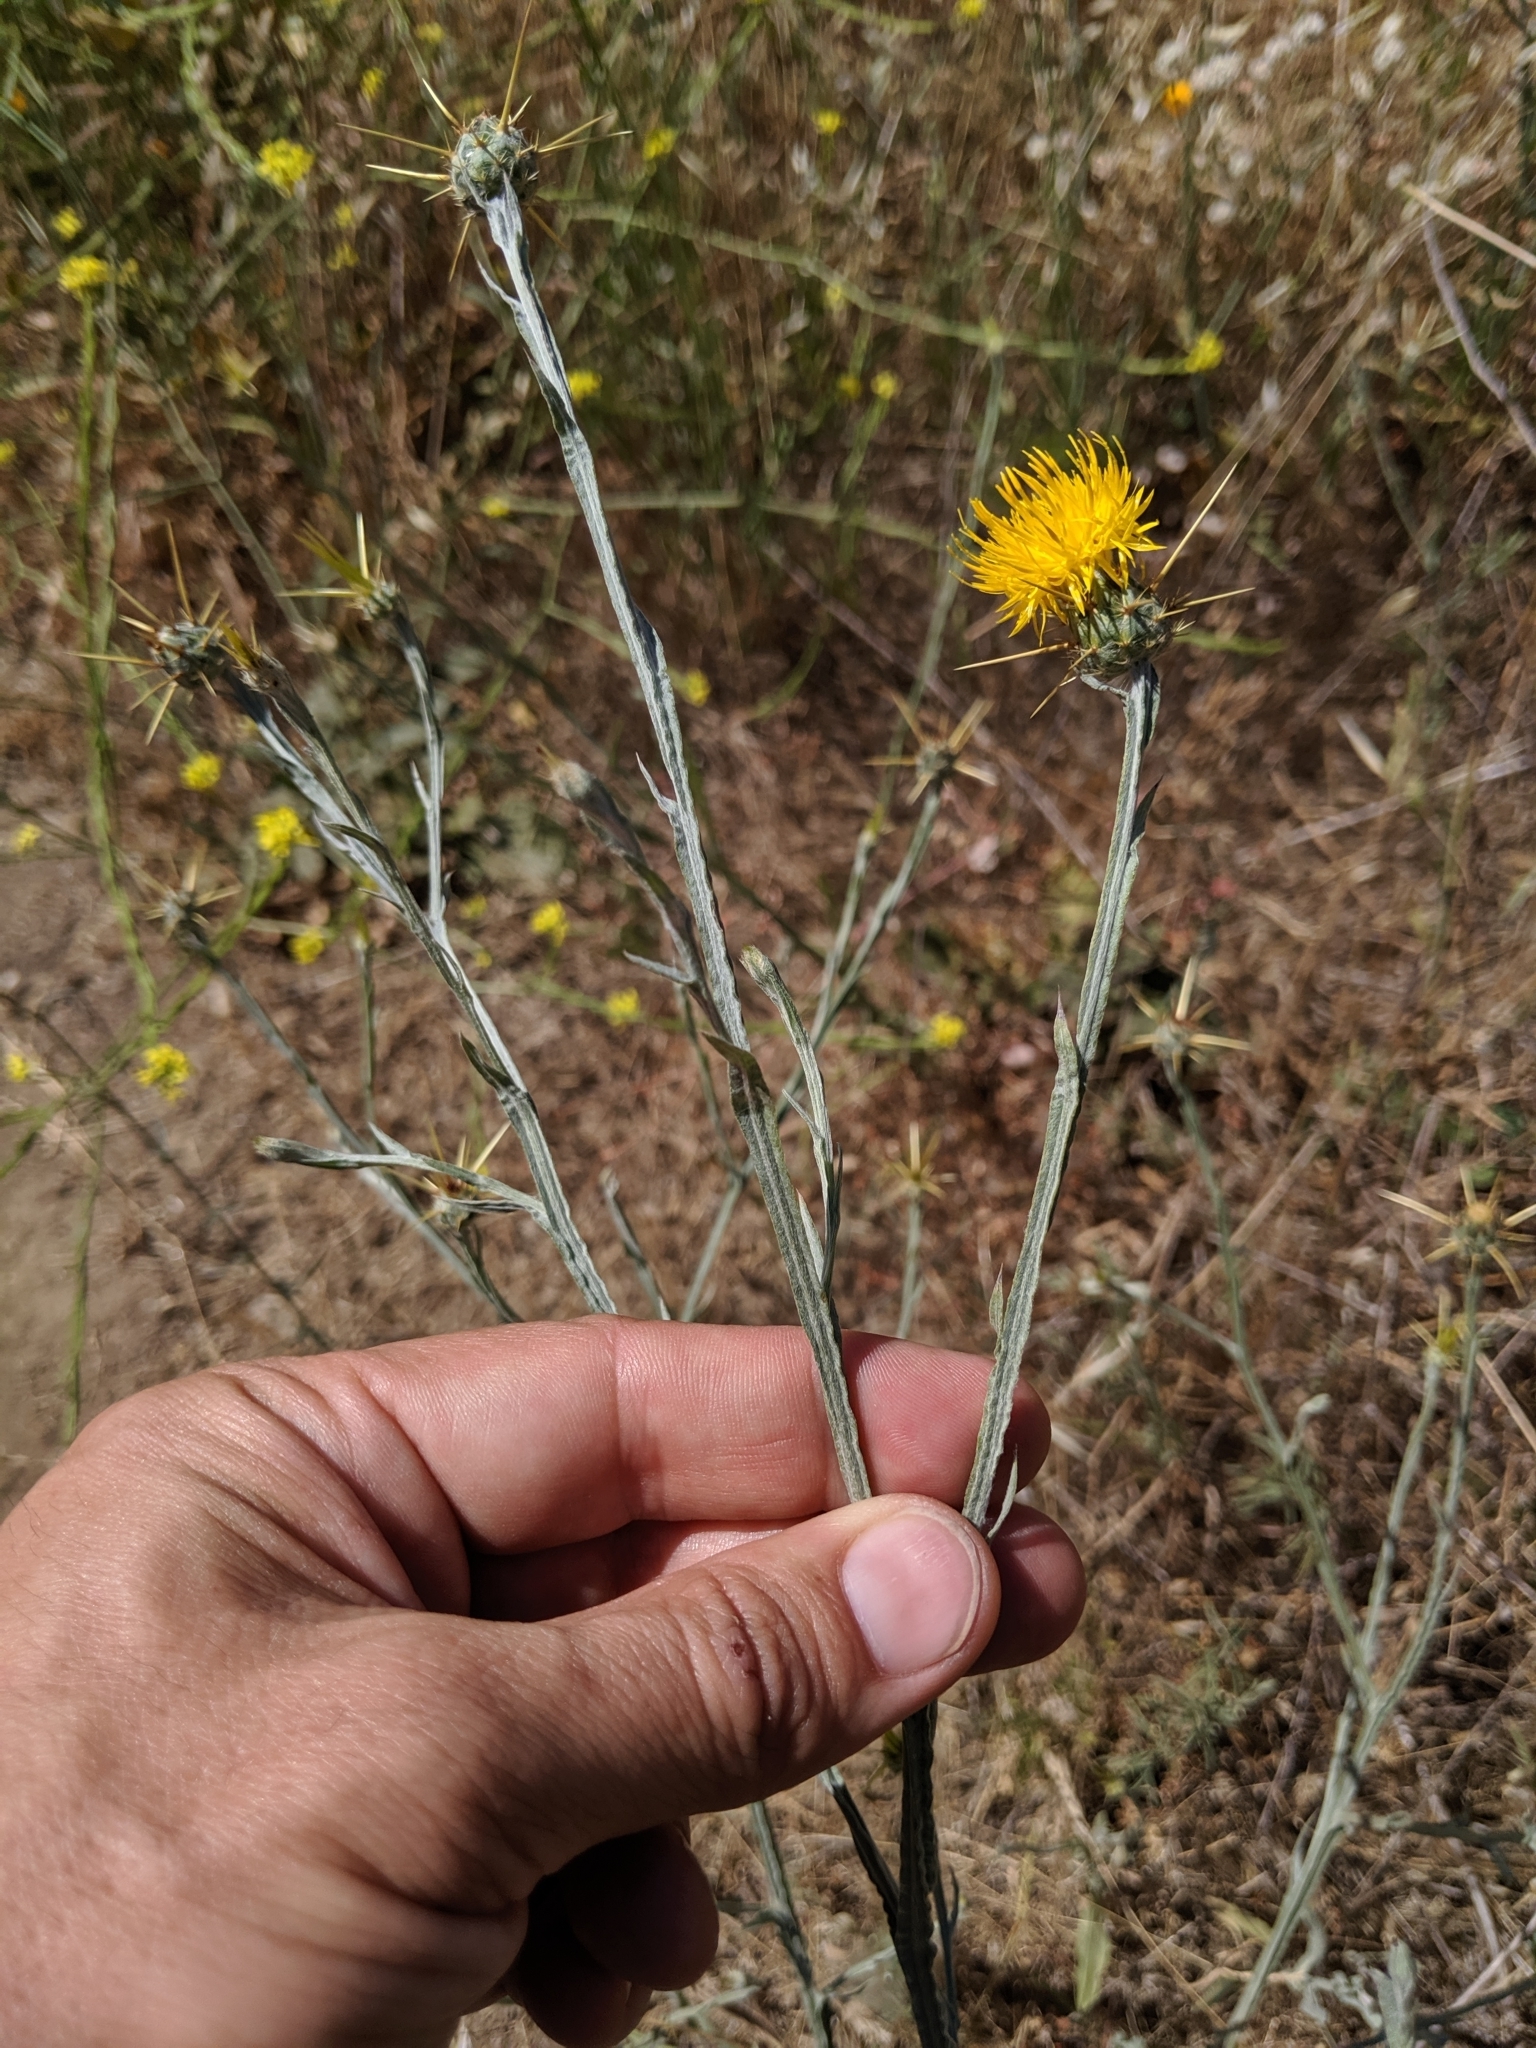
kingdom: Plantae
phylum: Tracheophyta
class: Magnoliopsida
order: Asterales
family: Asteraceae
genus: Centaurea
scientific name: Centaurea solstitialis
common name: Yellow star-thistle
